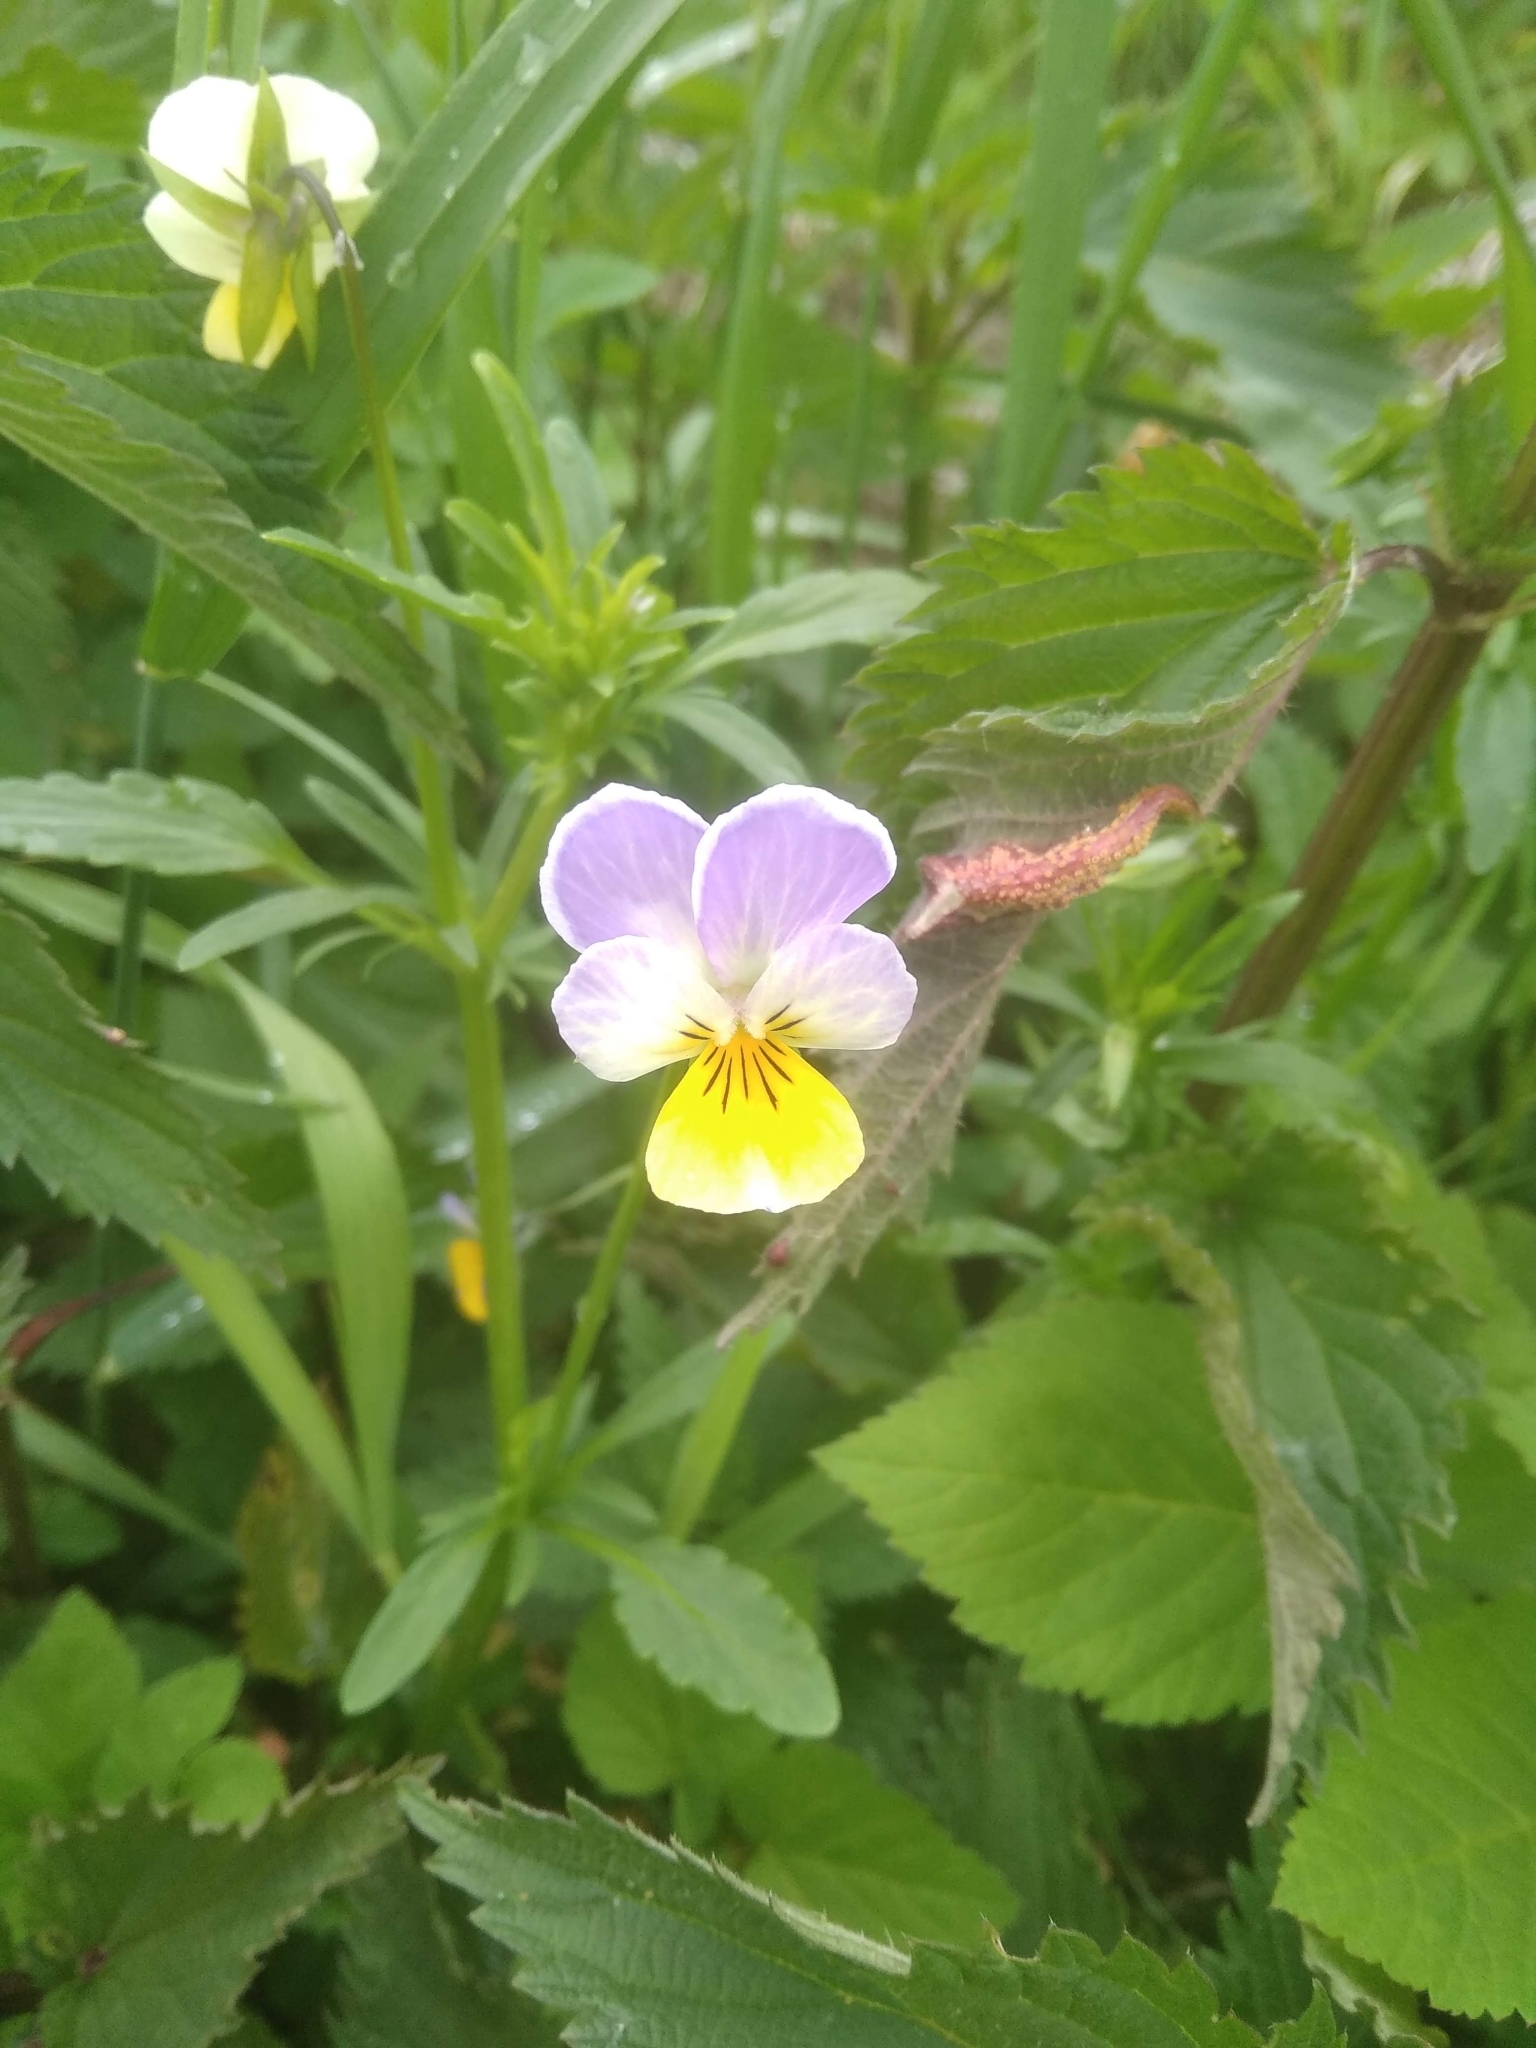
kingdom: Plantae
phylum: Tracheophyta
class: Magnoliopsida
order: Malpighiales
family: Violaceae
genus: Viola
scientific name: Viola arvensis
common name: Field pansy
